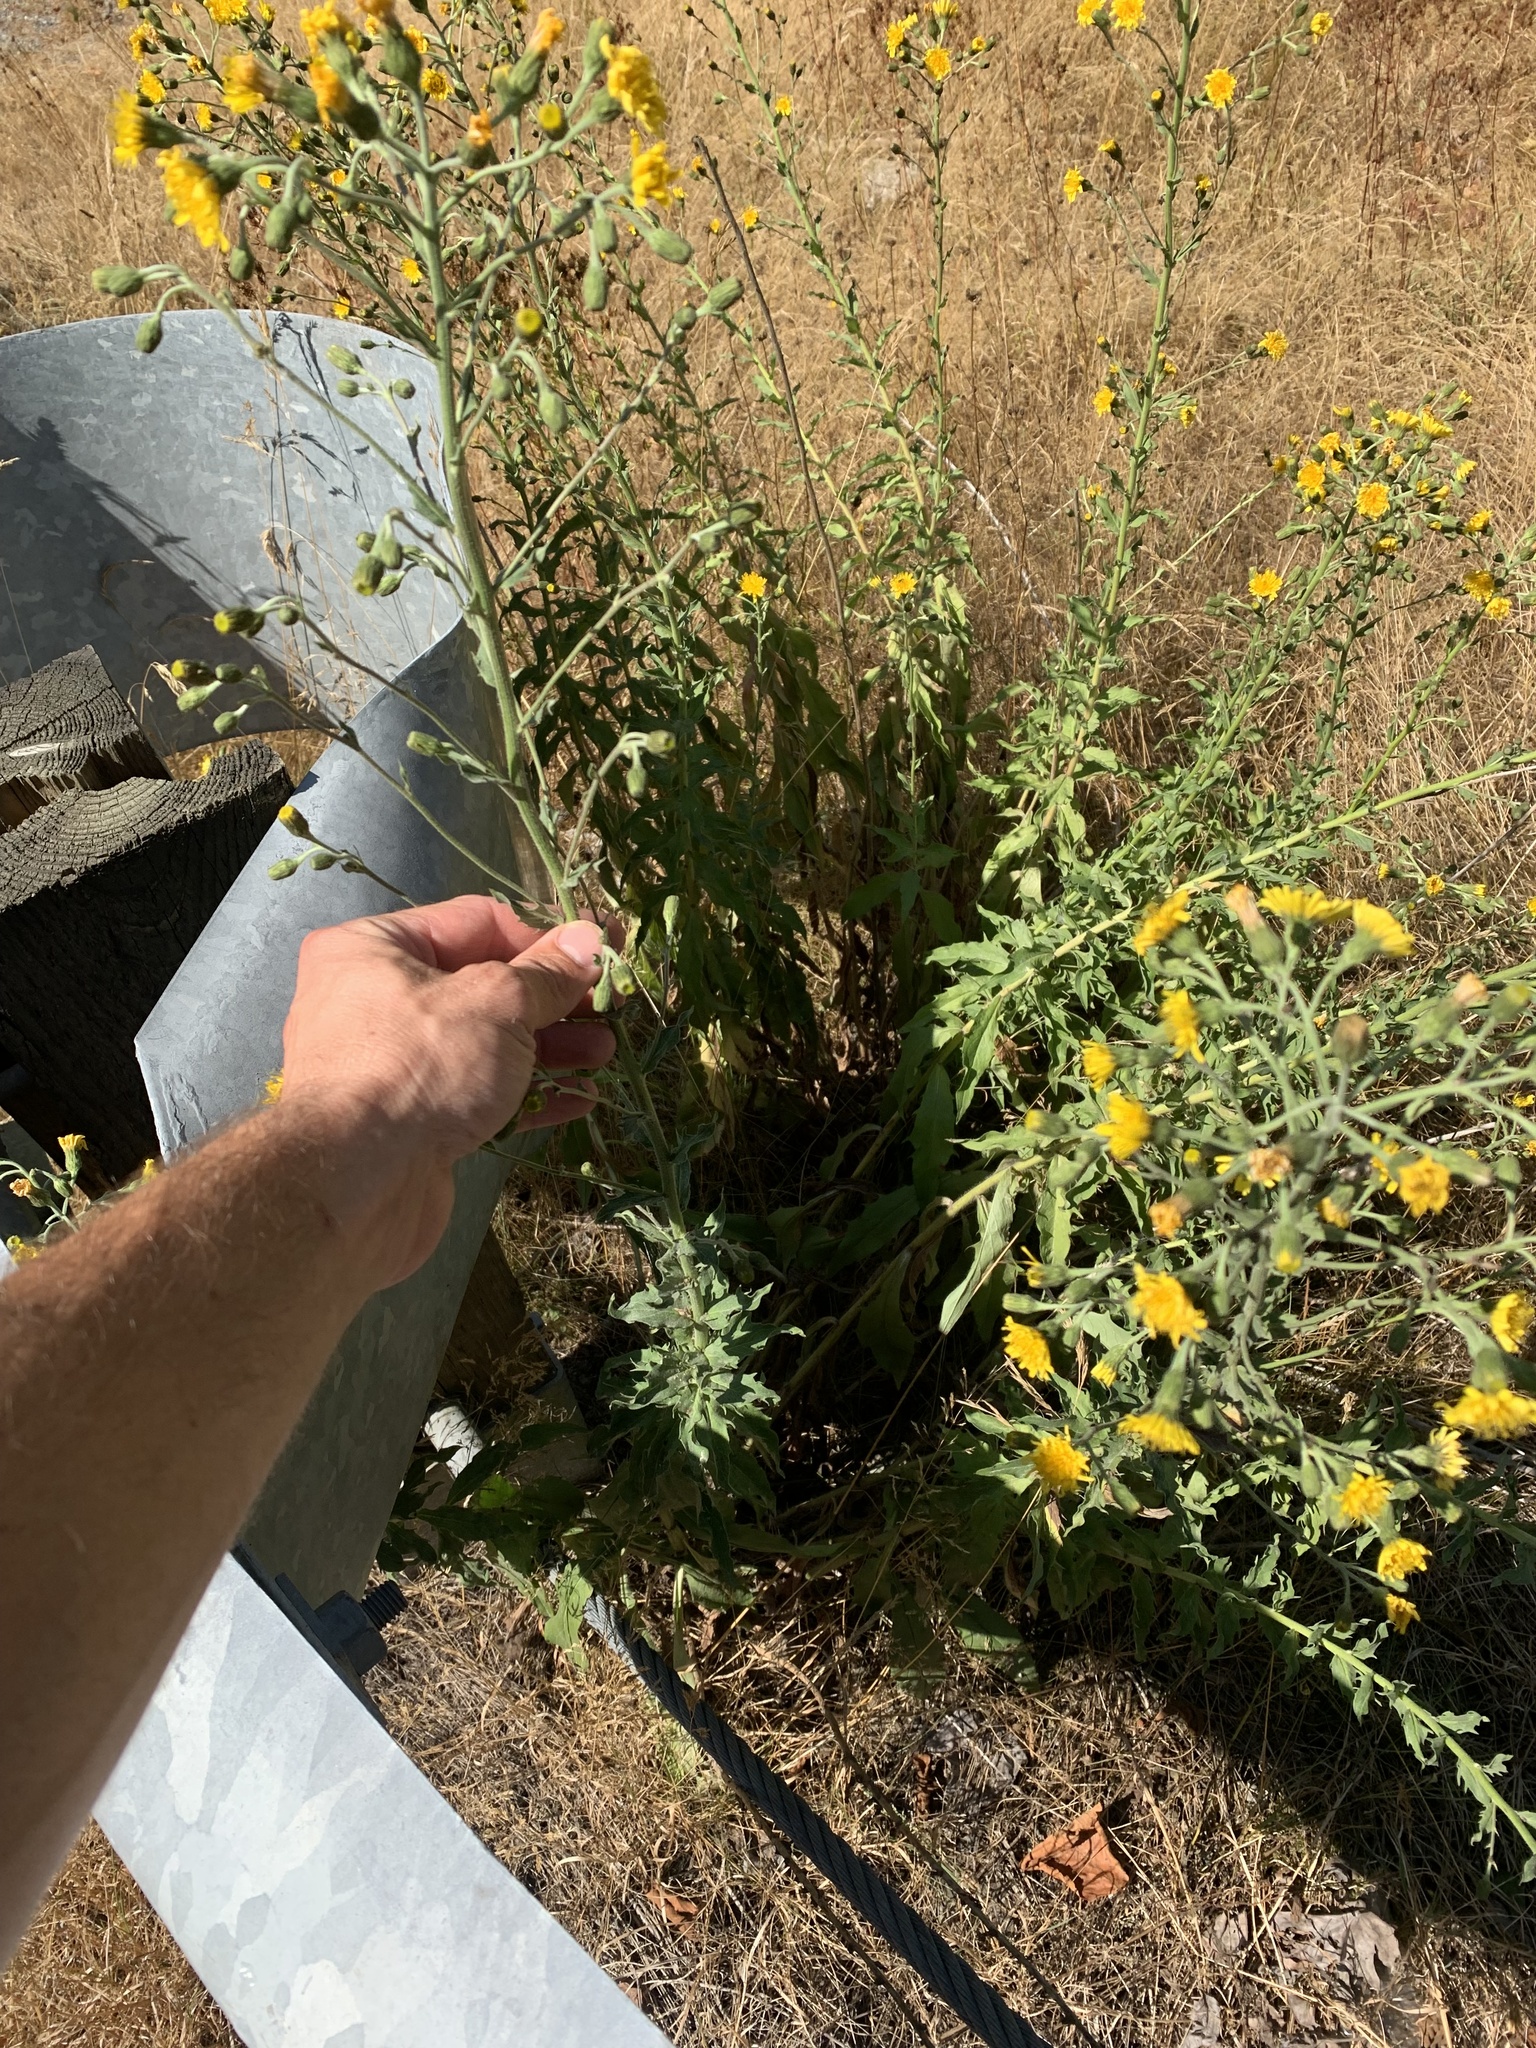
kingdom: Plantae
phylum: Tracheophyta
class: Magnoliopsida
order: Asterales
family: Asteraceae
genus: Hieracium
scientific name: Hieracium sabaudum
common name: New england hawkweed
